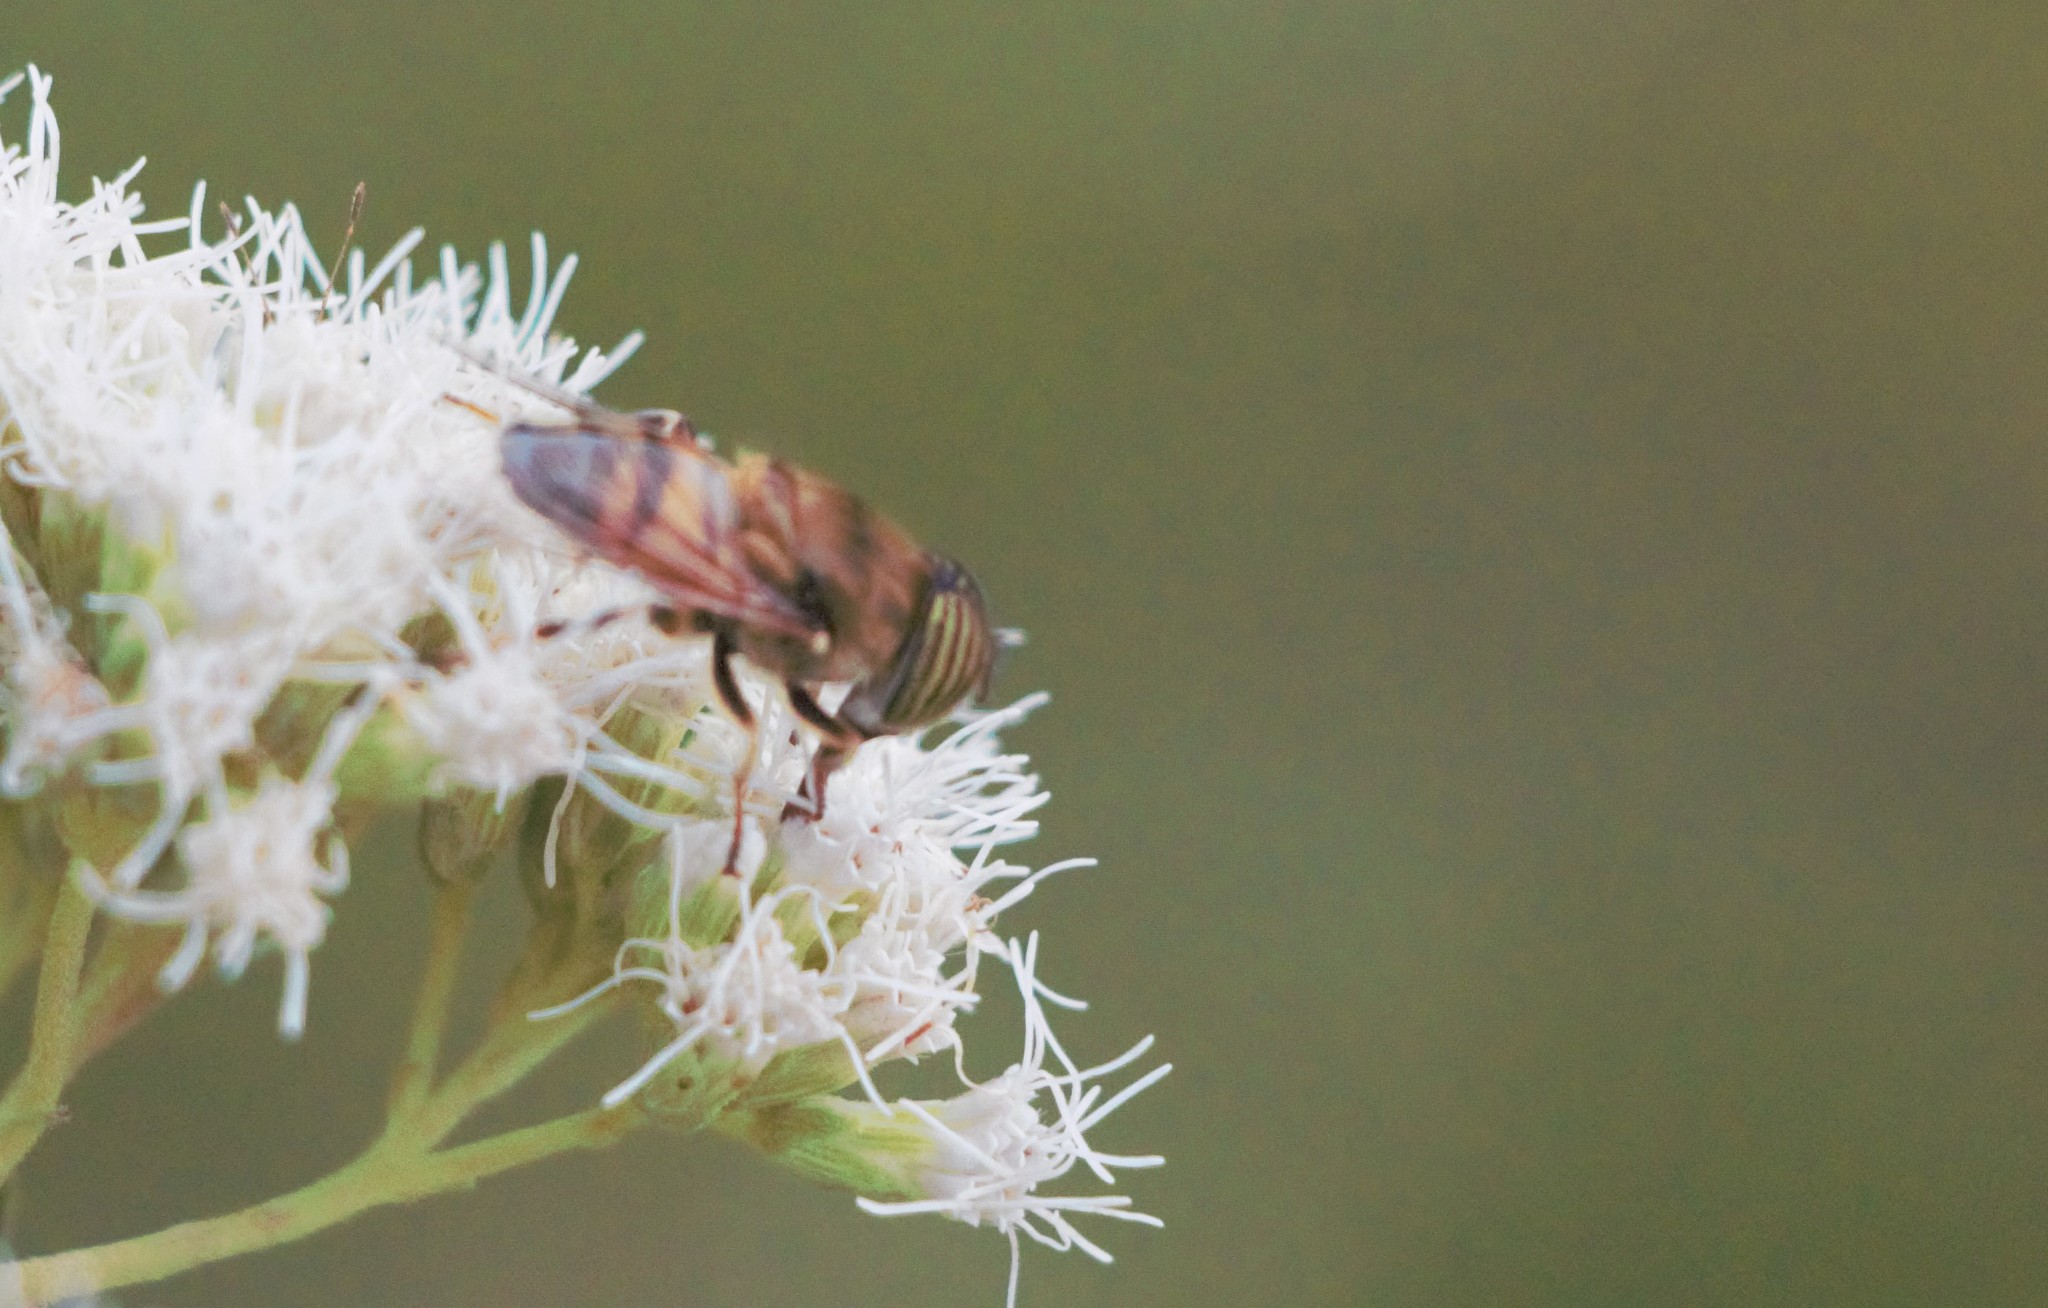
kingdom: Animalia
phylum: Arthropoda
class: Insecta
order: Diptera
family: Syrphidae
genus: Eristalinus
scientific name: Eristalinus taeniops
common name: Syrphid fly
